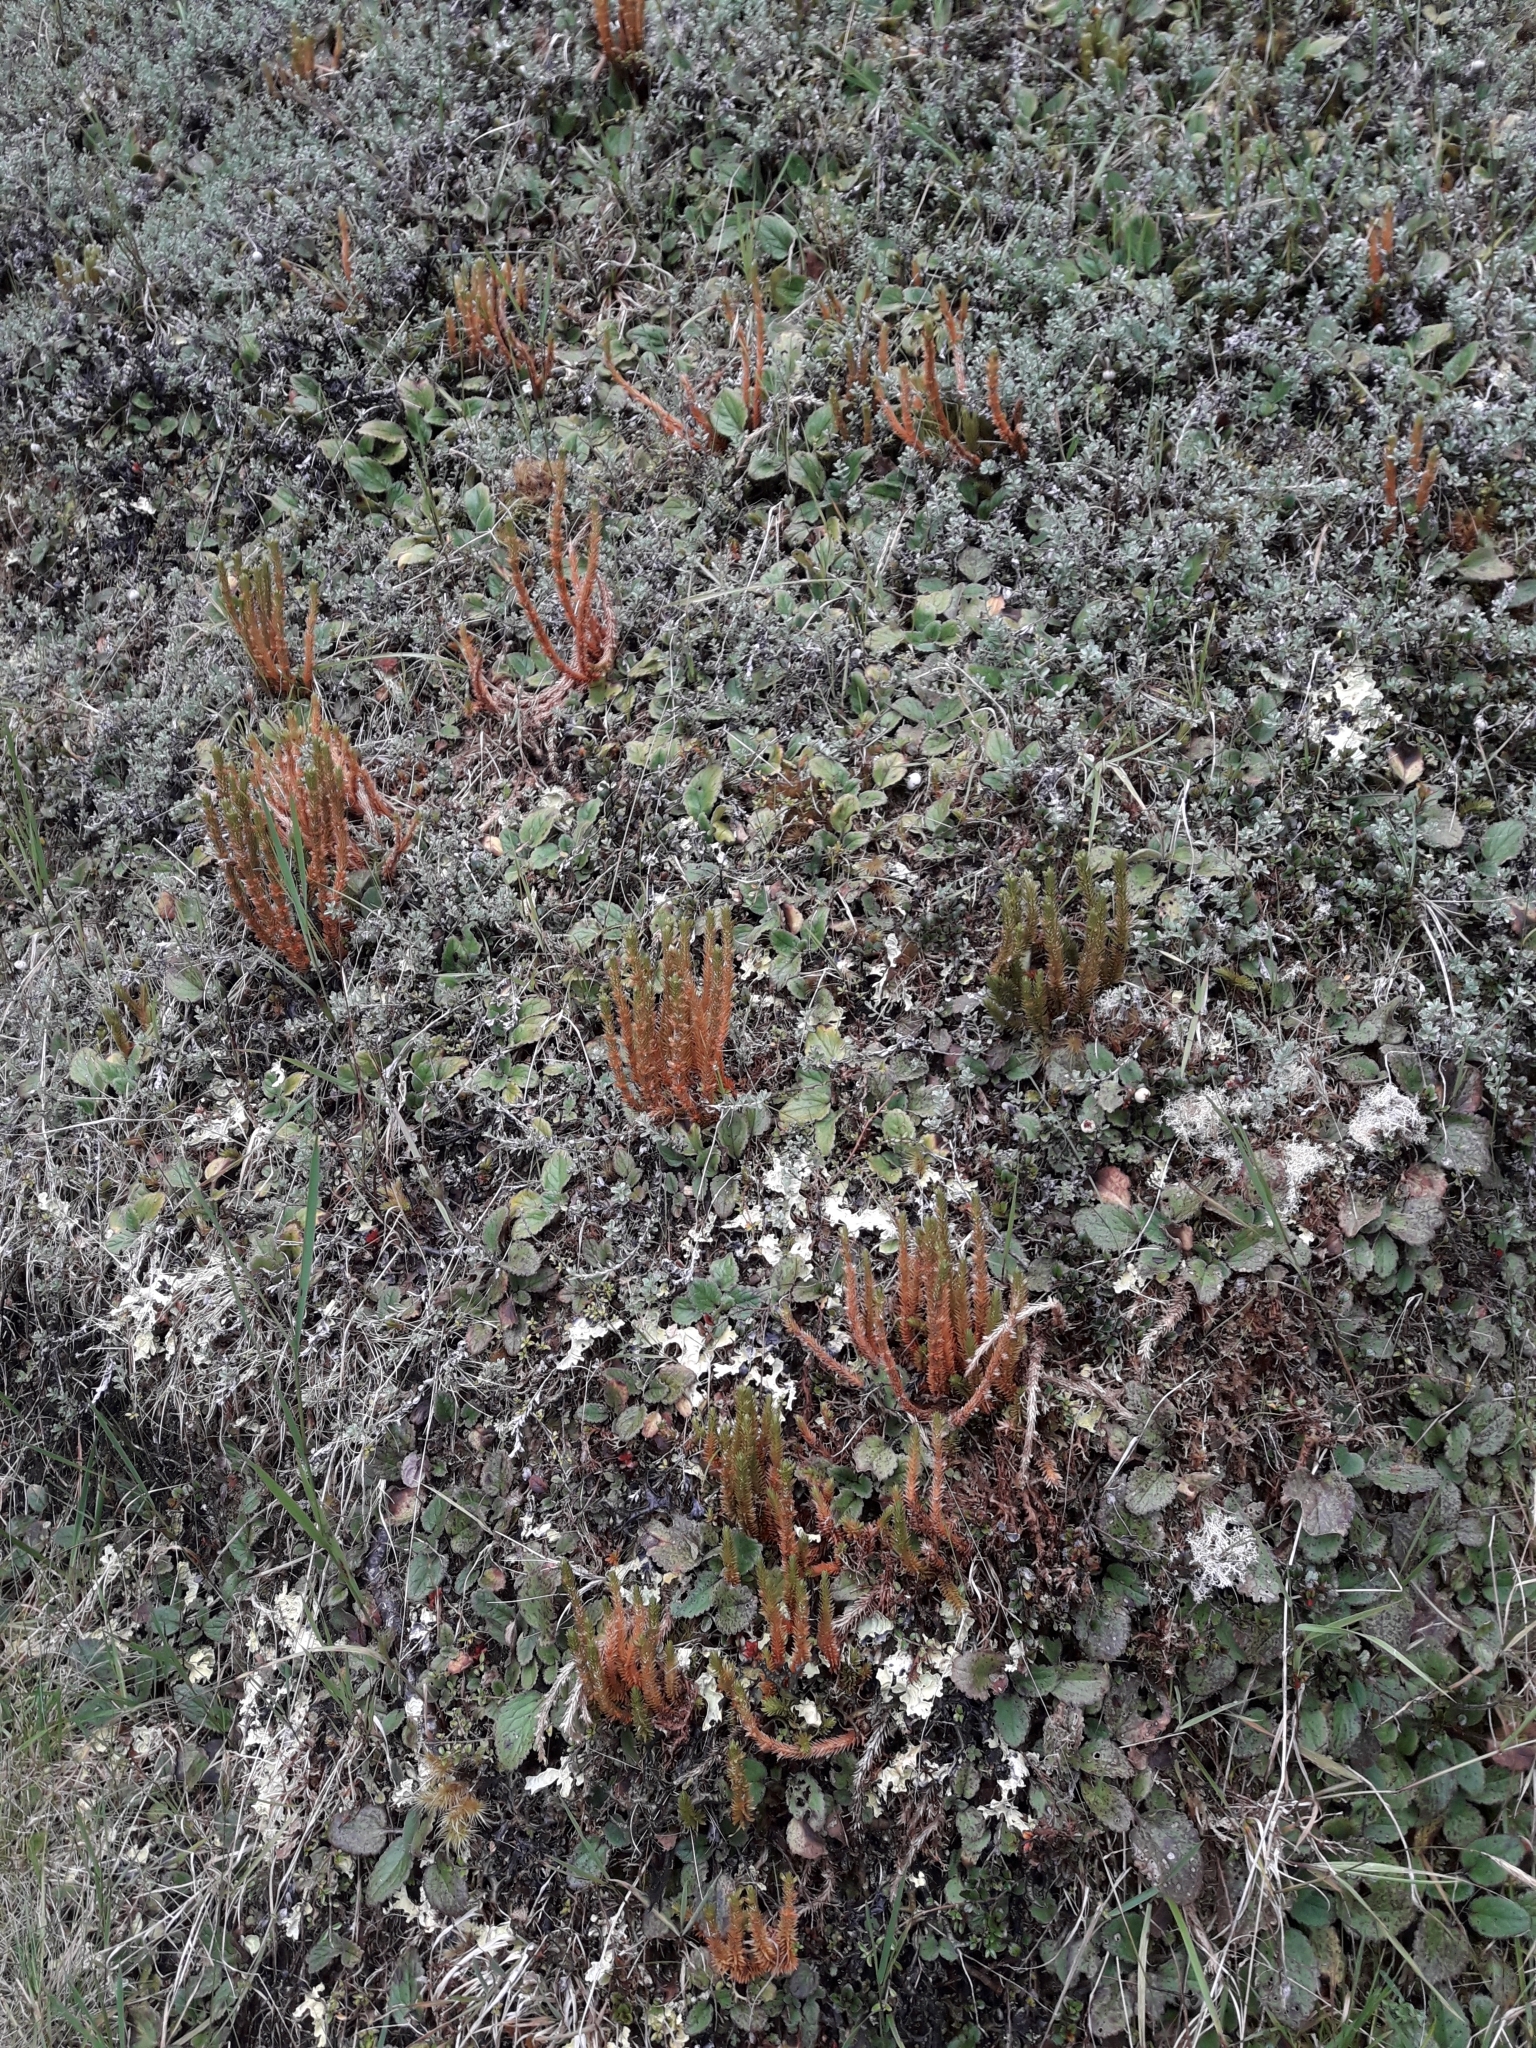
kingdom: Plantae
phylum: Tracheophyta
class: Lycopodiopsida
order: Lycopodiales
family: Lycopodiaceae
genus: Huperzia
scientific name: Huperzia australiana
